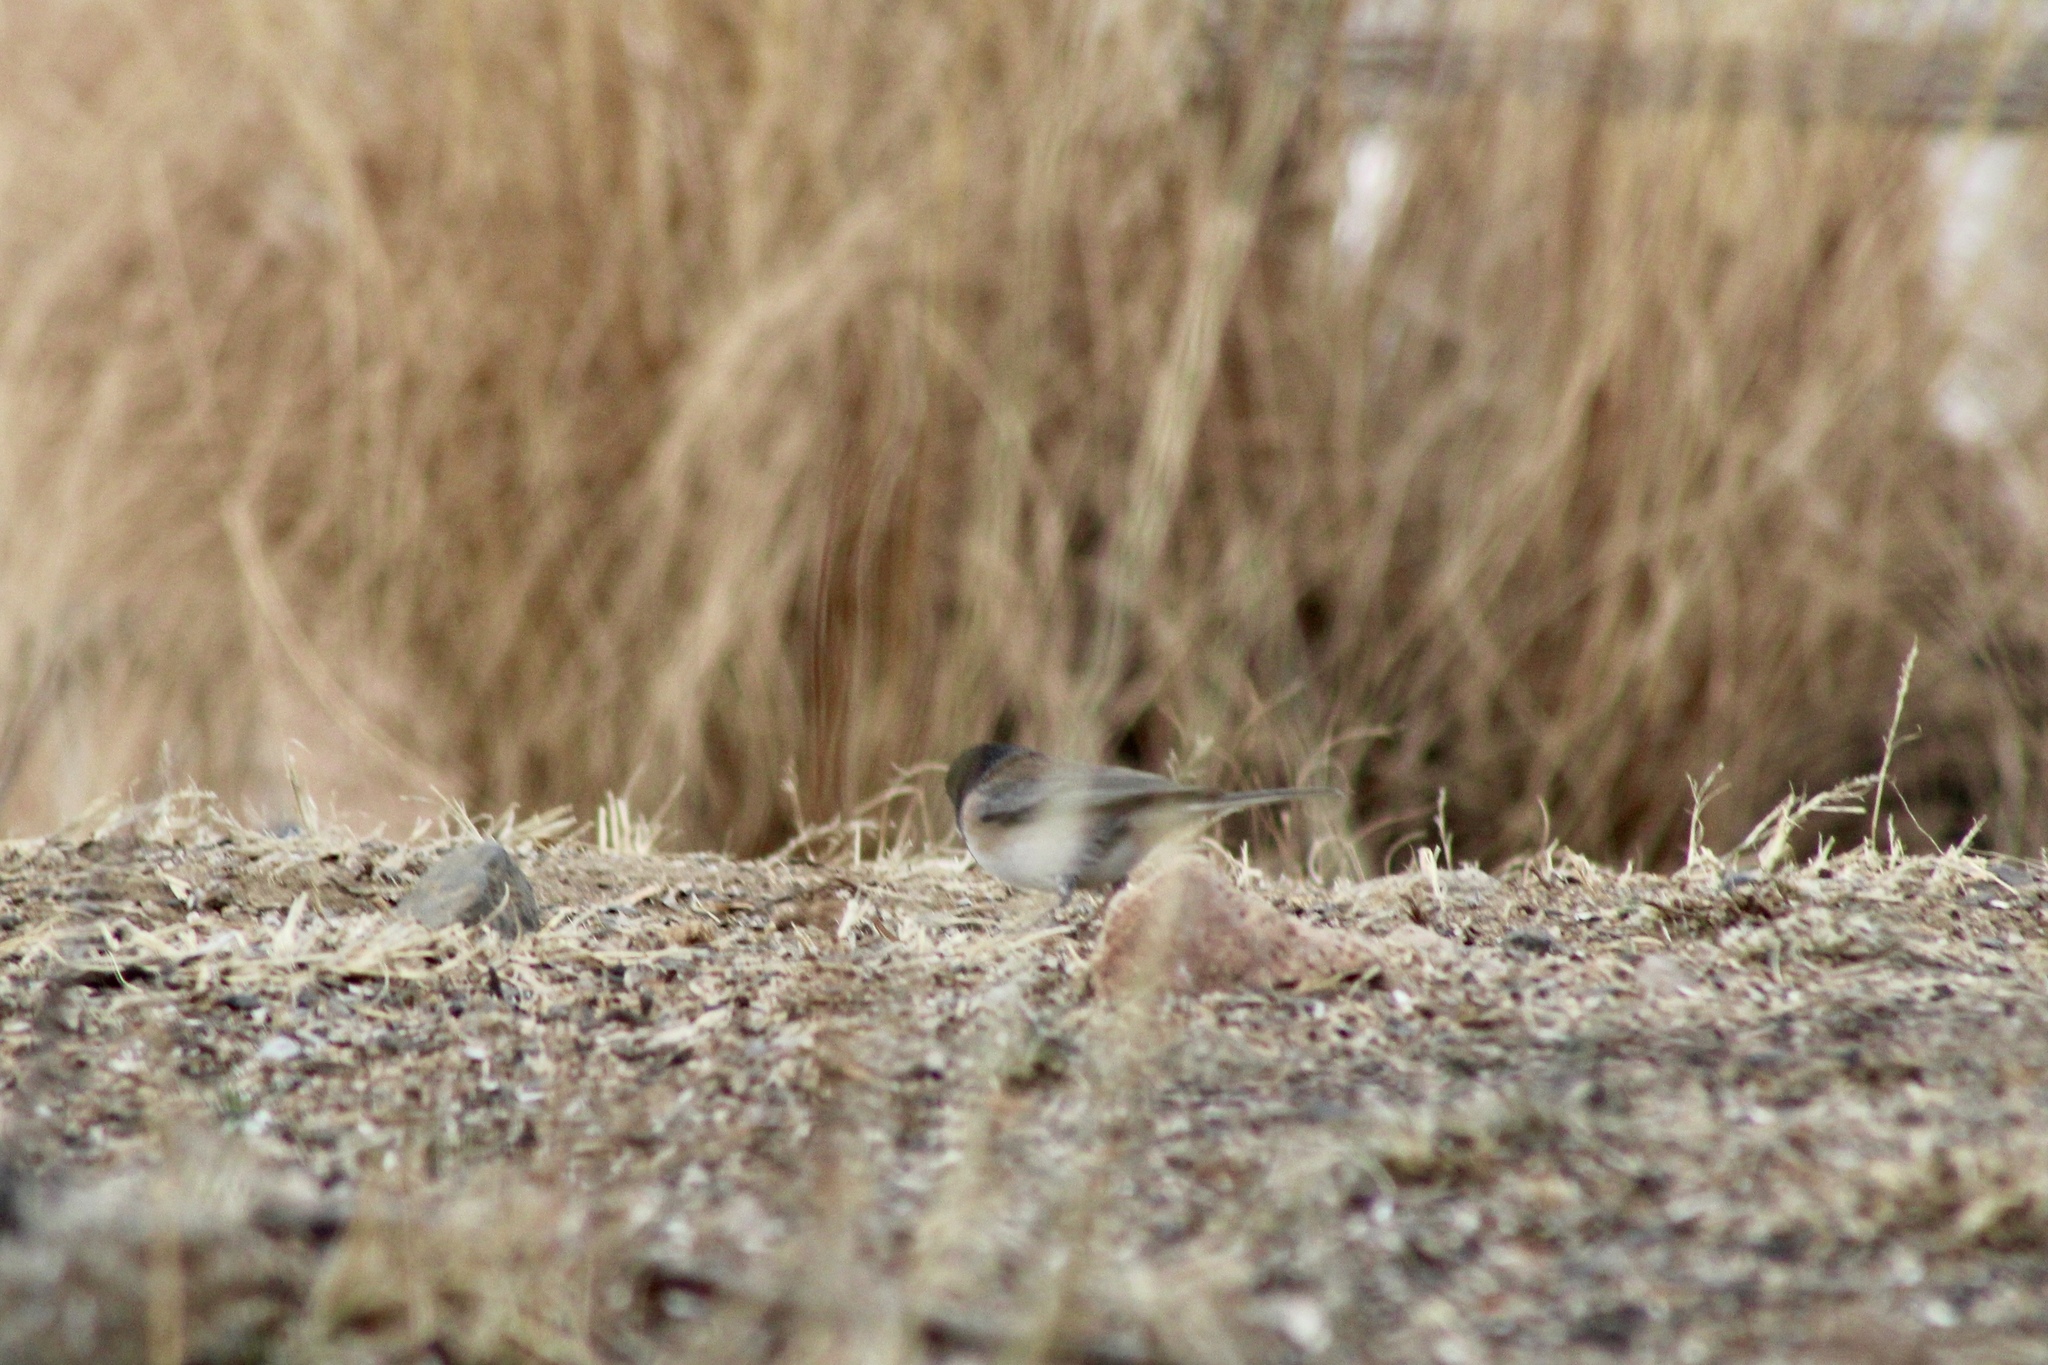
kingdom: Animalia
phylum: Chordata
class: Aves
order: Passeriformes
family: Passerellidae
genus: Junco
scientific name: Junco hyemalis
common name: Dark-eyed junco
